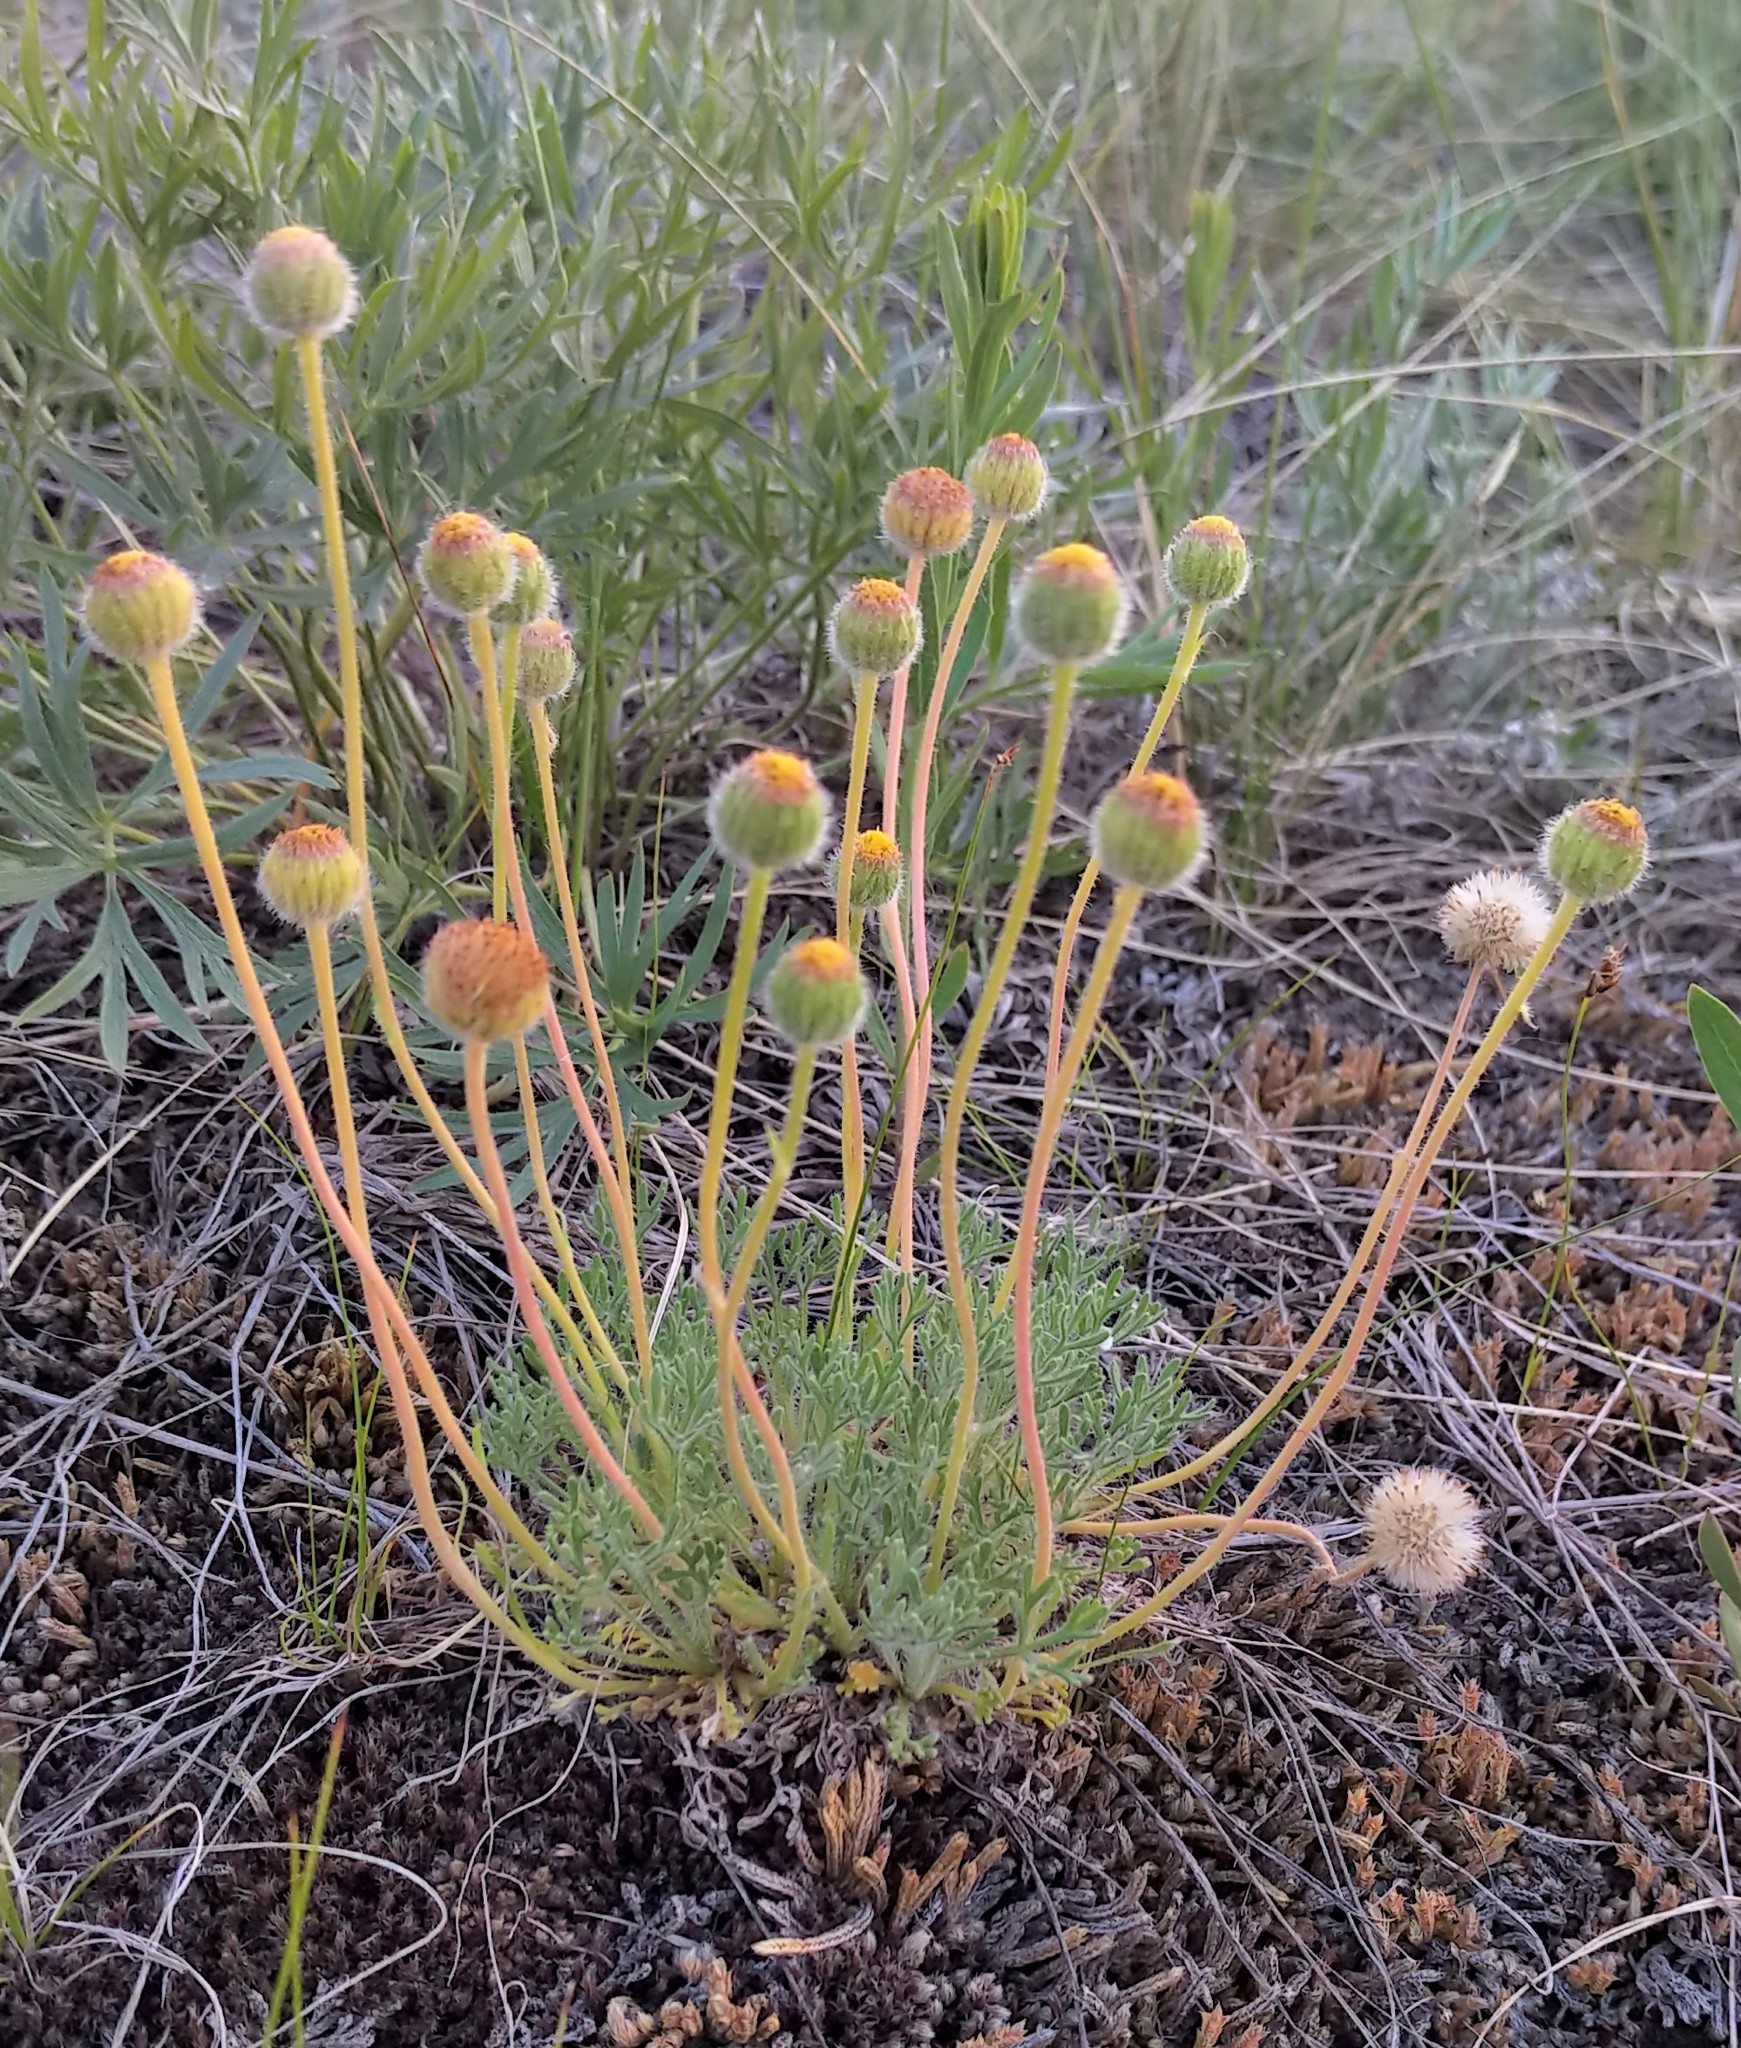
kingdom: Plantae
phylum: Tracheophyta
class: Magnoliopsida
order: Asterales
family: Asteraceae
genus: Erigeron
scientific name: Erigeron compositus
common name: Dwarf mountain fleabane
